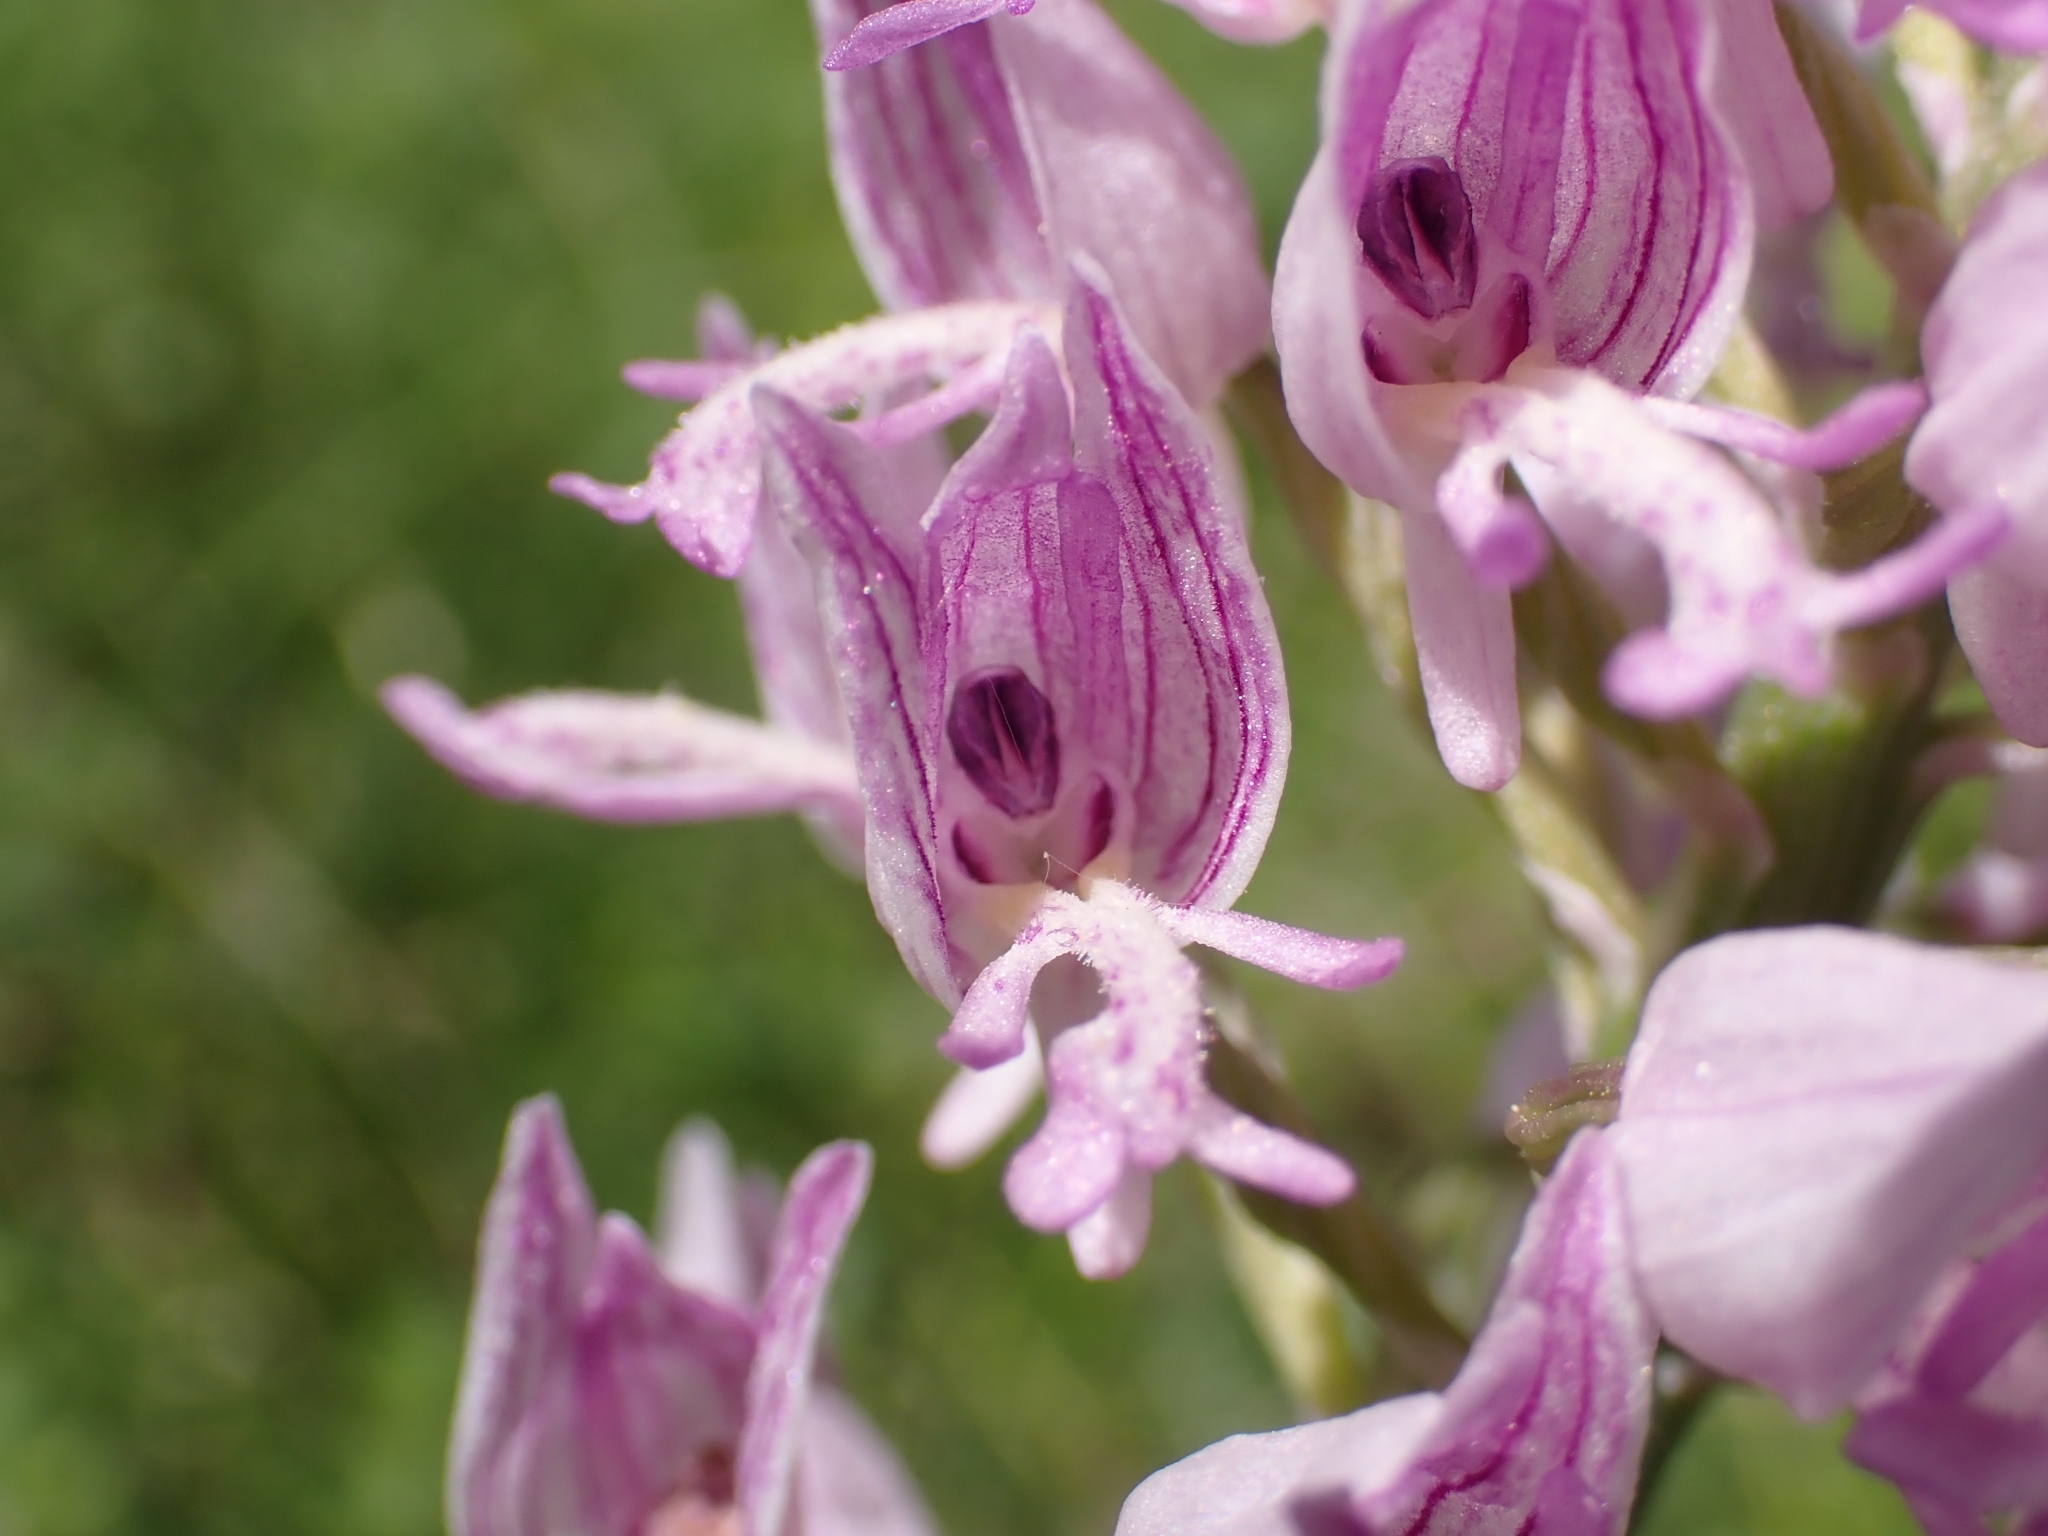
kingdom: Plantae
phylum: Tracheophyta
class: Liliopsida
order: Asparagales
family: Orchidaceae
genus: Orchis
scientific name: Orchis militaris
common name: Military orchid
